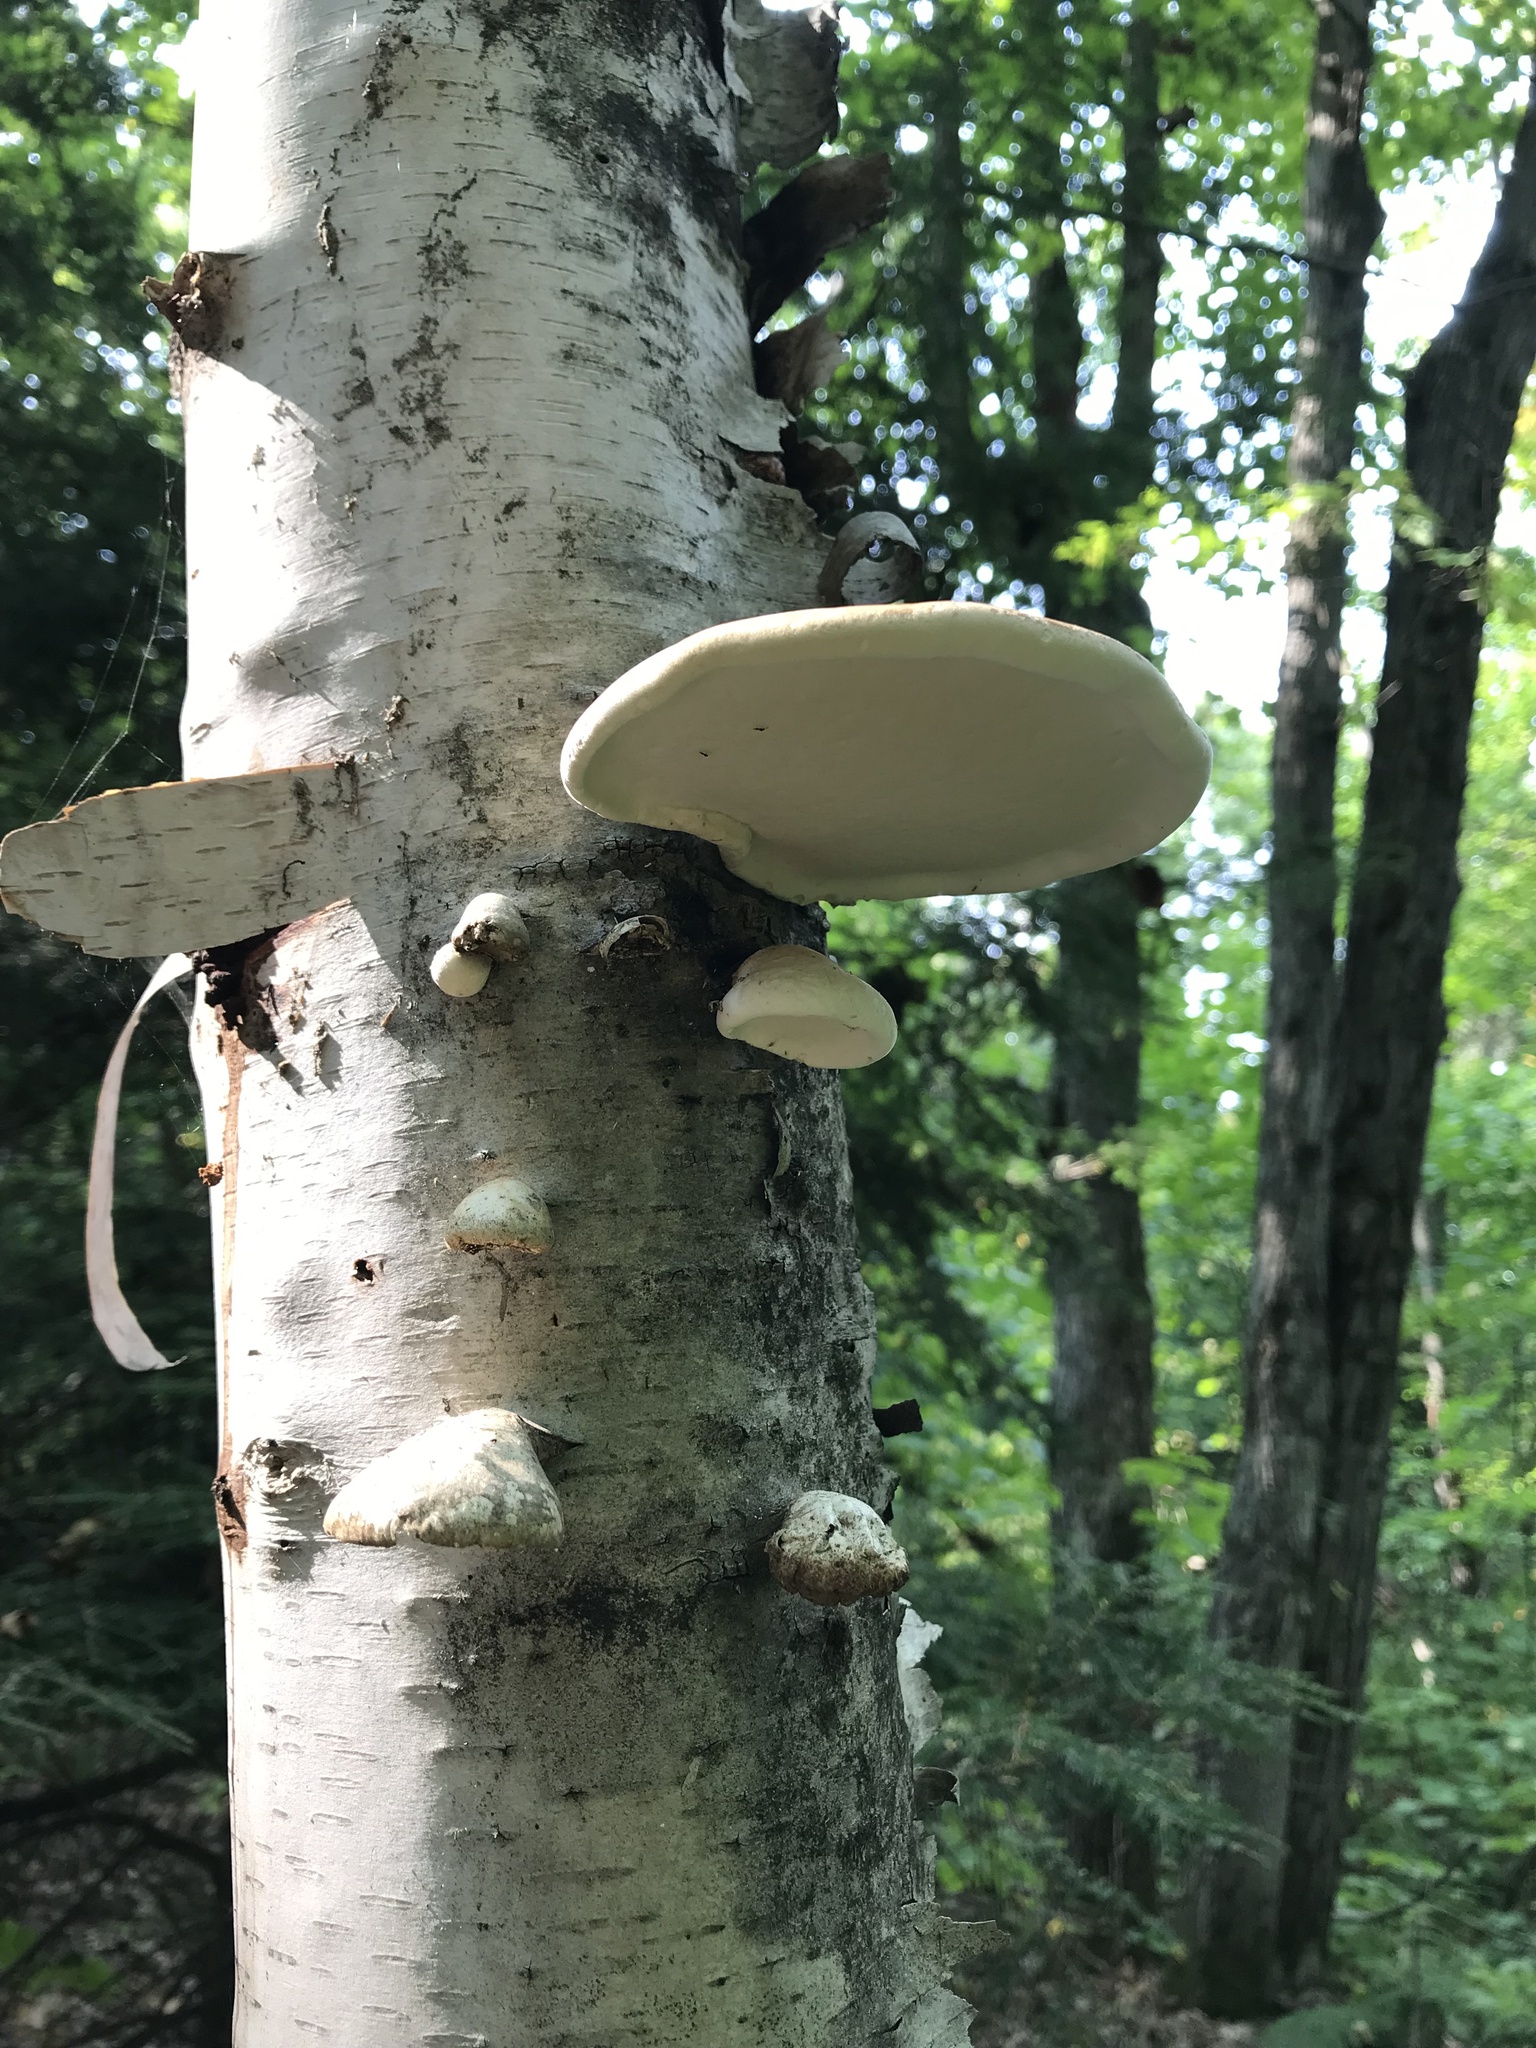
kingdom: Fungi
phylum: Basidiomycota
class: Agaricomycetes
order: Polyporales
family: Fomitopsidaceae
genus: Fomitopsis
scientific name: Fomitopsis betulina
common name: Birch polypore
